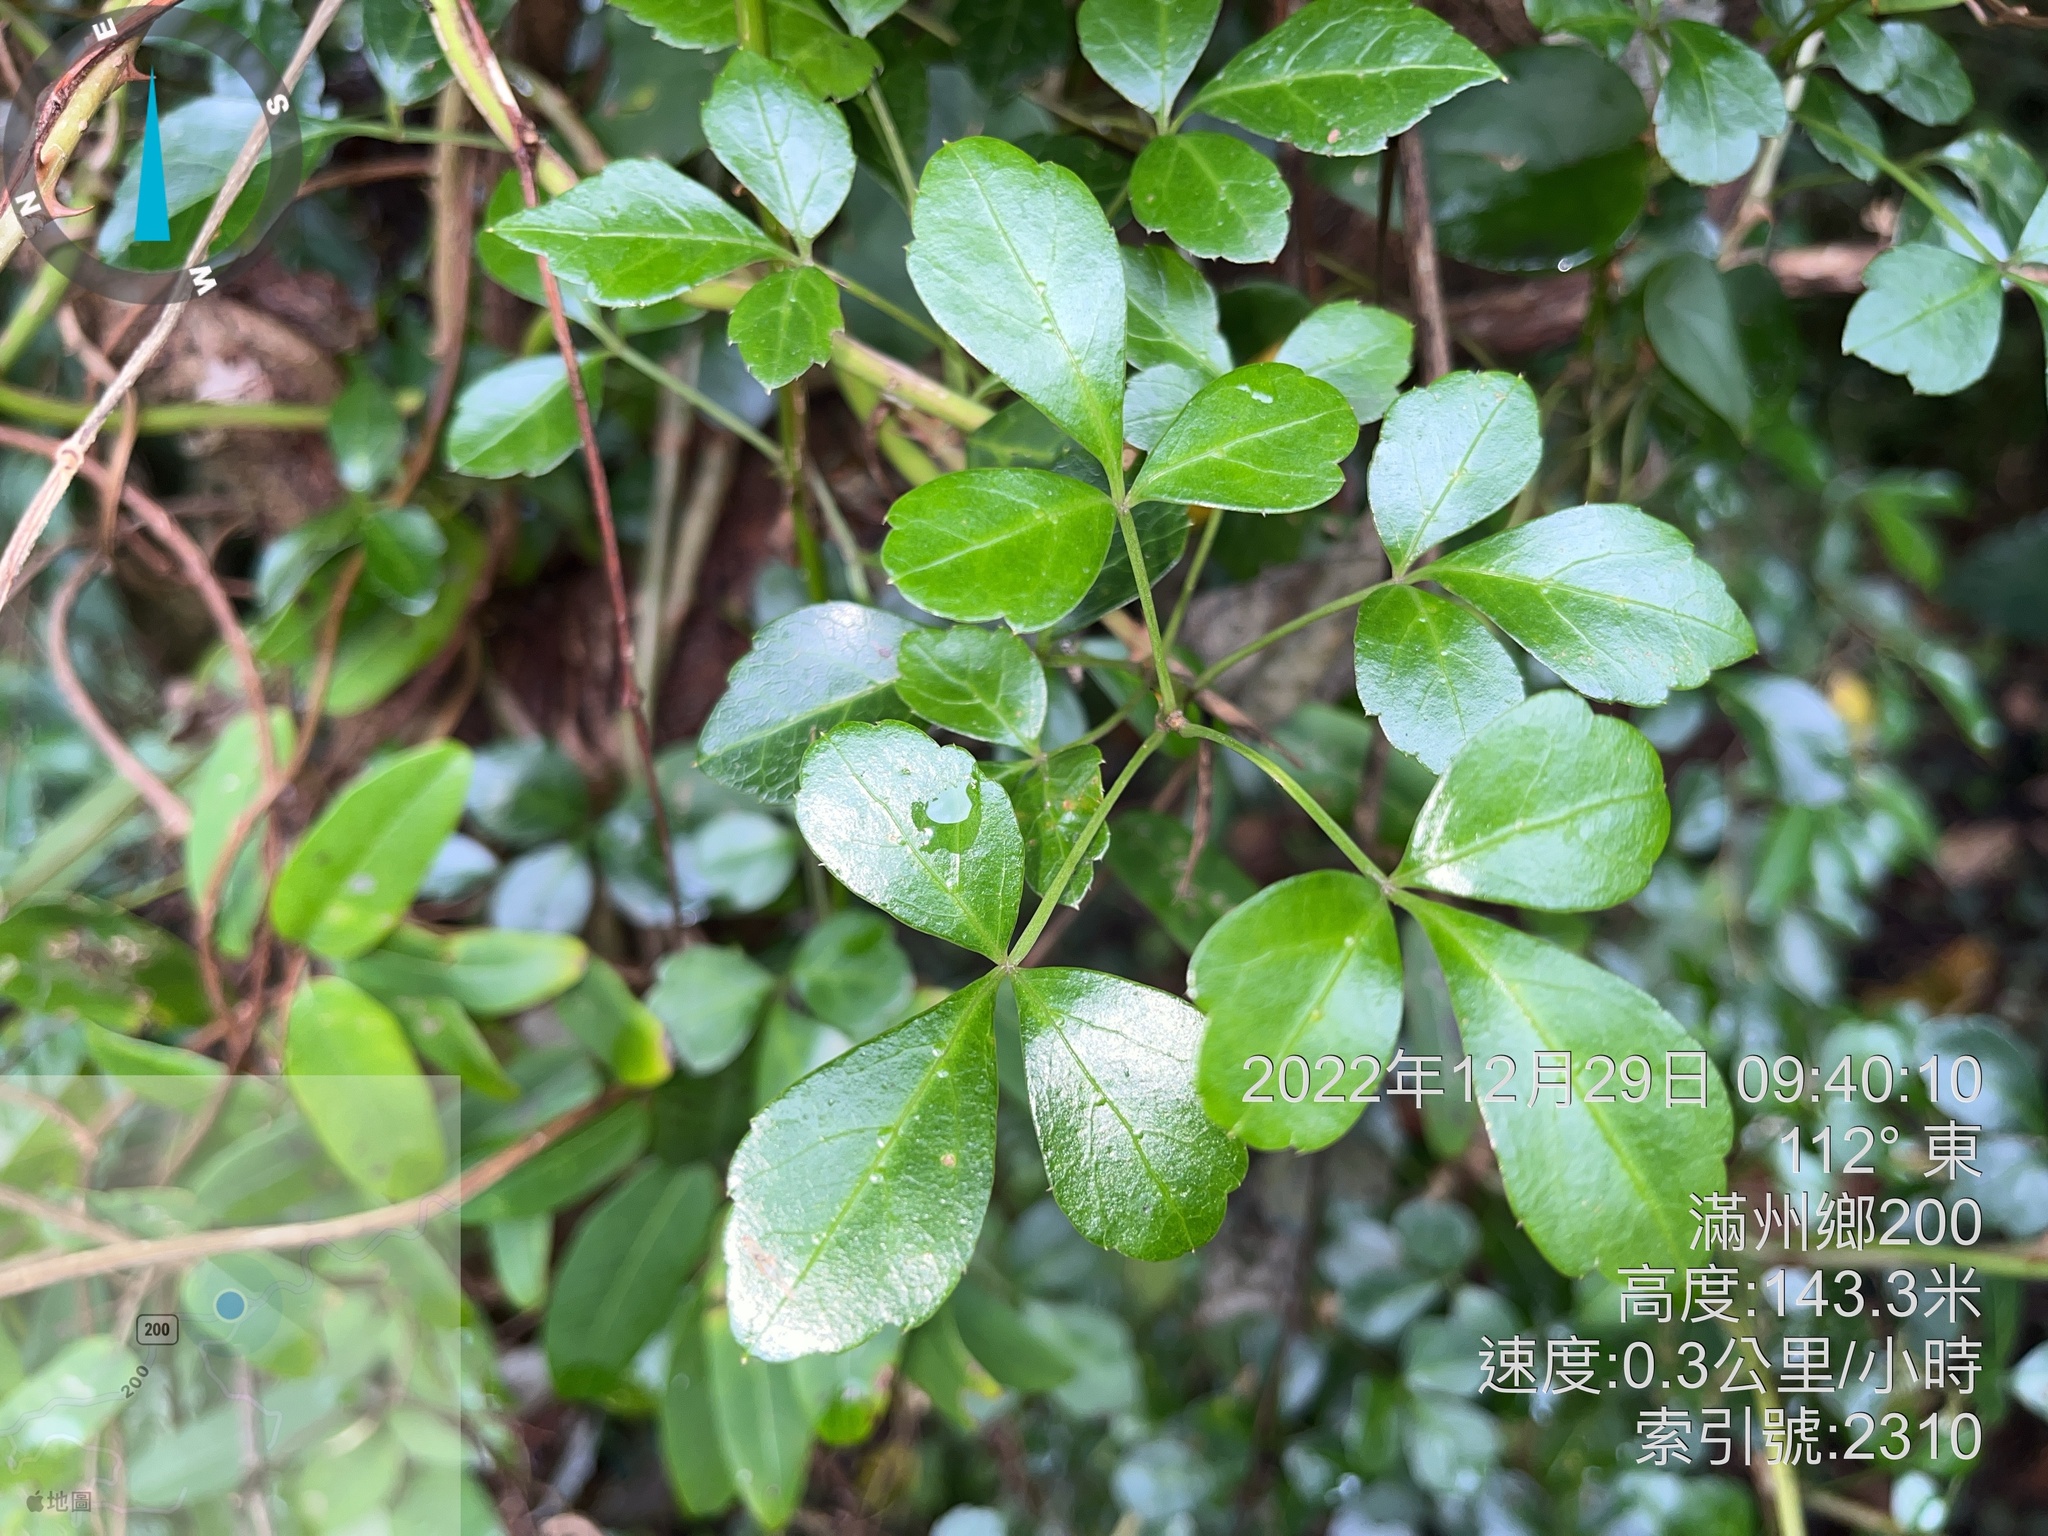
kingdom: Plantae
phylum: Tracheophyta
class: Magnoliopsida
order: Apiales
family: Araliaceae
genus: Eleutherococcus
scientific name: Eleutherococcus trifoliatus
